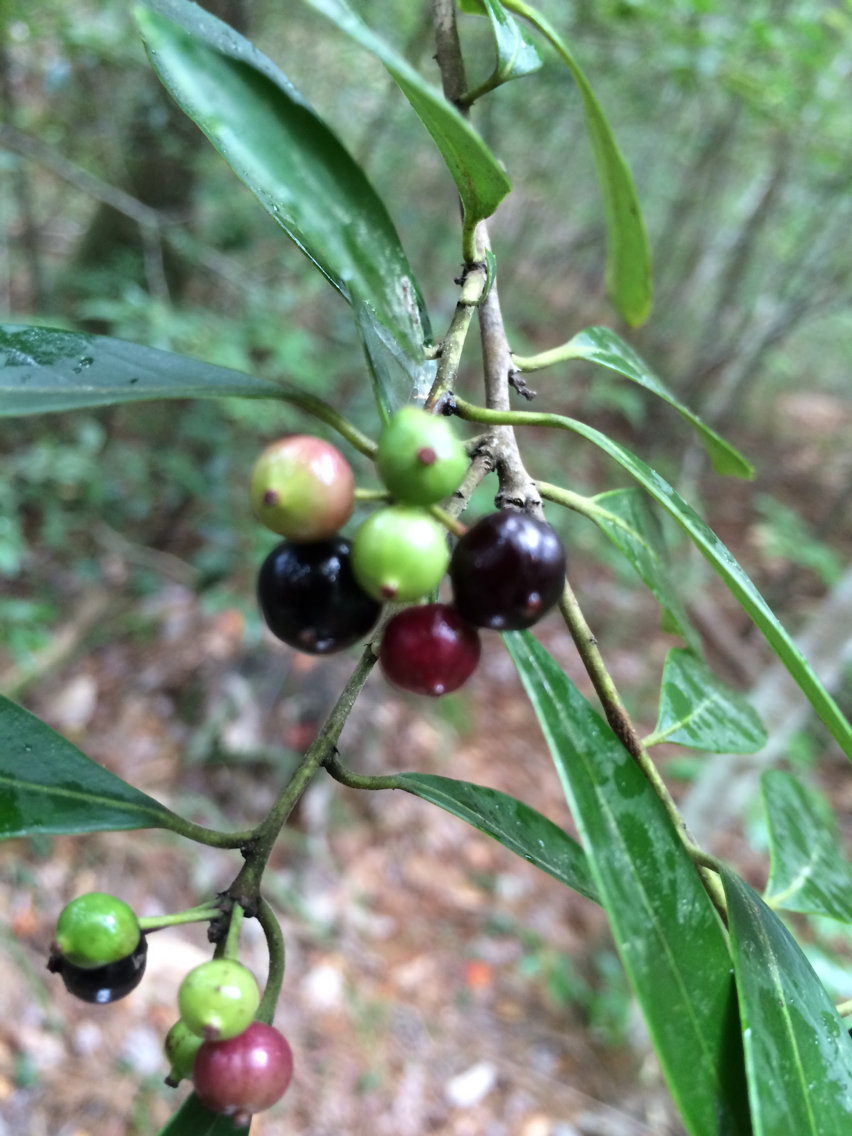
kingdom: Plantae
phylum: Tracheophyta
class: Magnoliopsida
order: Aquifoliales
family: Aquifoliaceae
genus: Ilex
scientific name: Ilex coriacea
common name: Sweet gallberry
